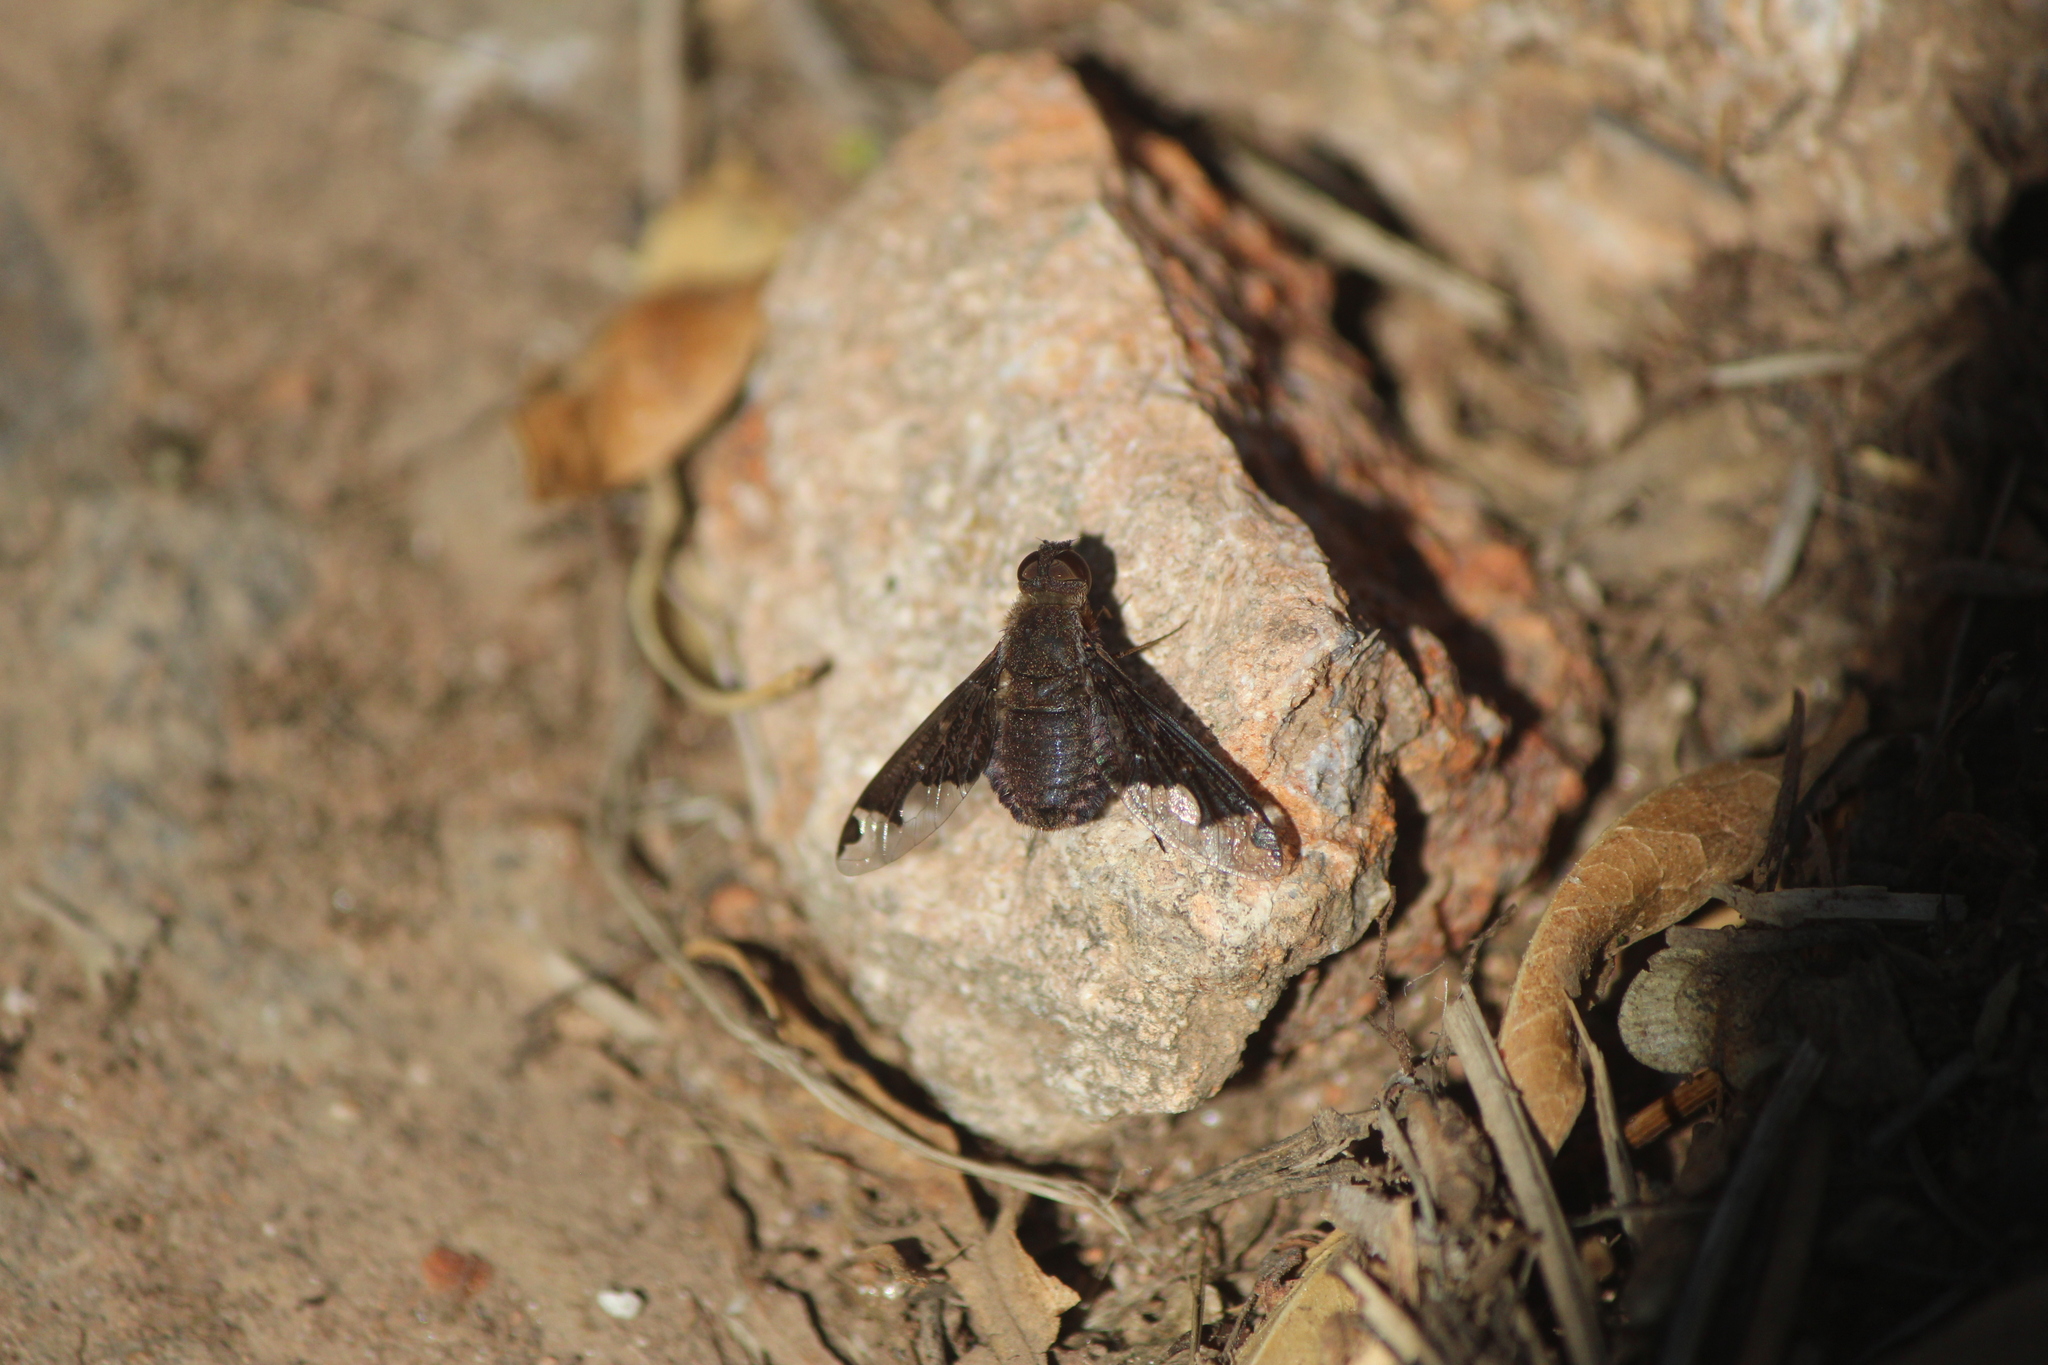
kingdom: Animalia
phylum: Arthropoda
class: Insecta
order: Diptera
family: Bombyliidae
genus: Hemipenthes
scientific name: Hemipenthes jaennickeana
